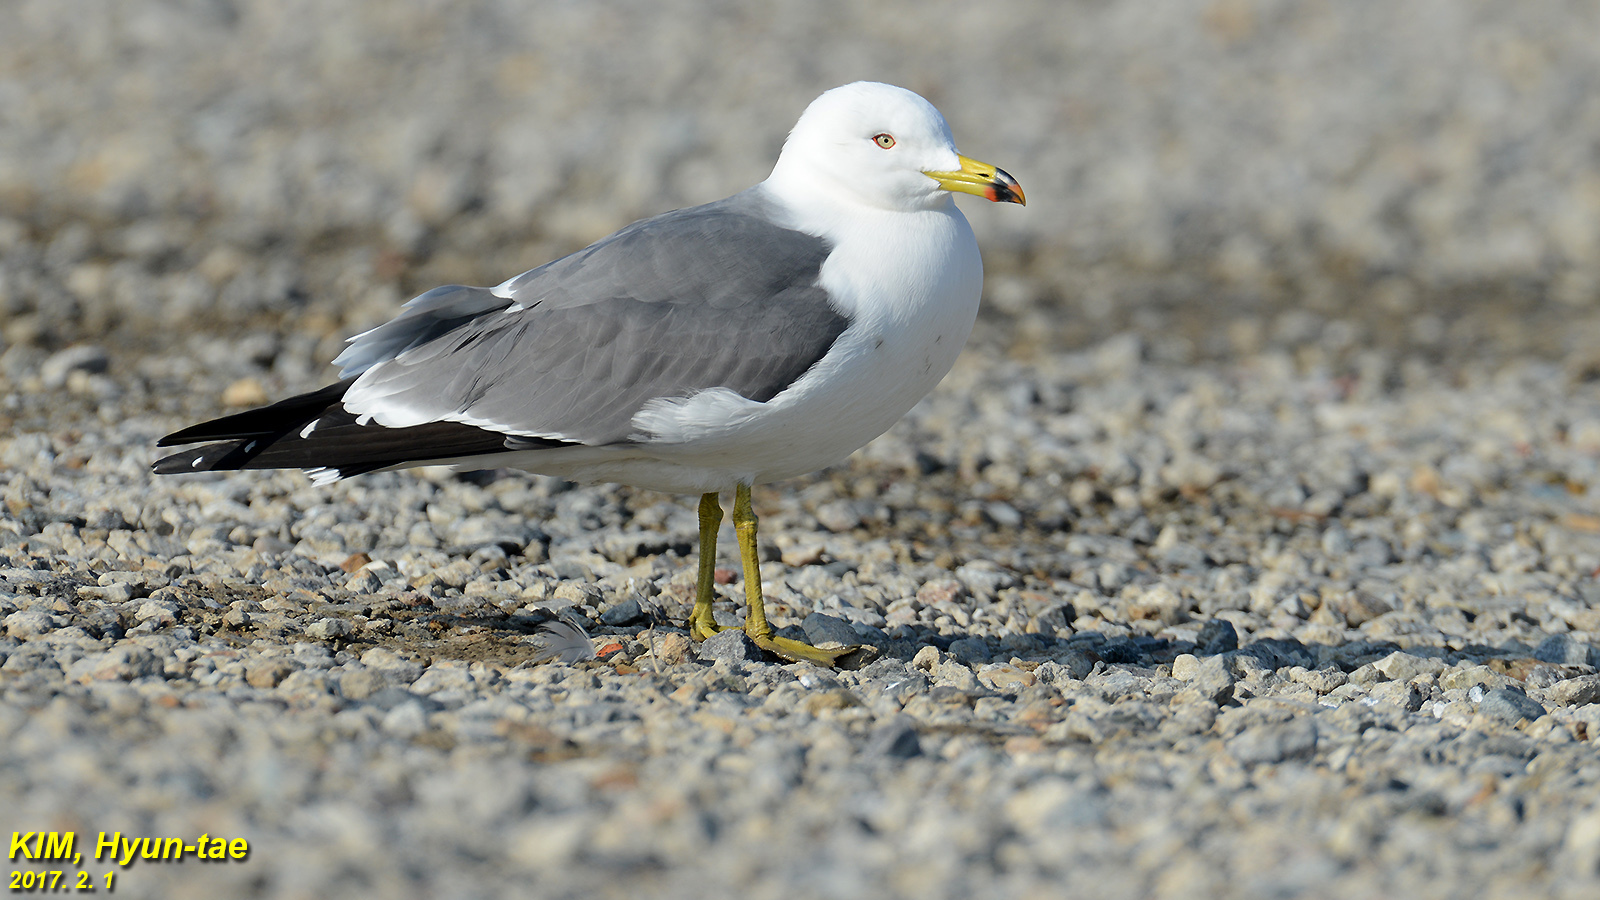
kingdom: Animalia
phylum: Chordata
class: Aves
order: Charadriiformes
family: Laridae
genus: Larus
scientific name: Larus crassirostris
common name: Black-tailed gull
